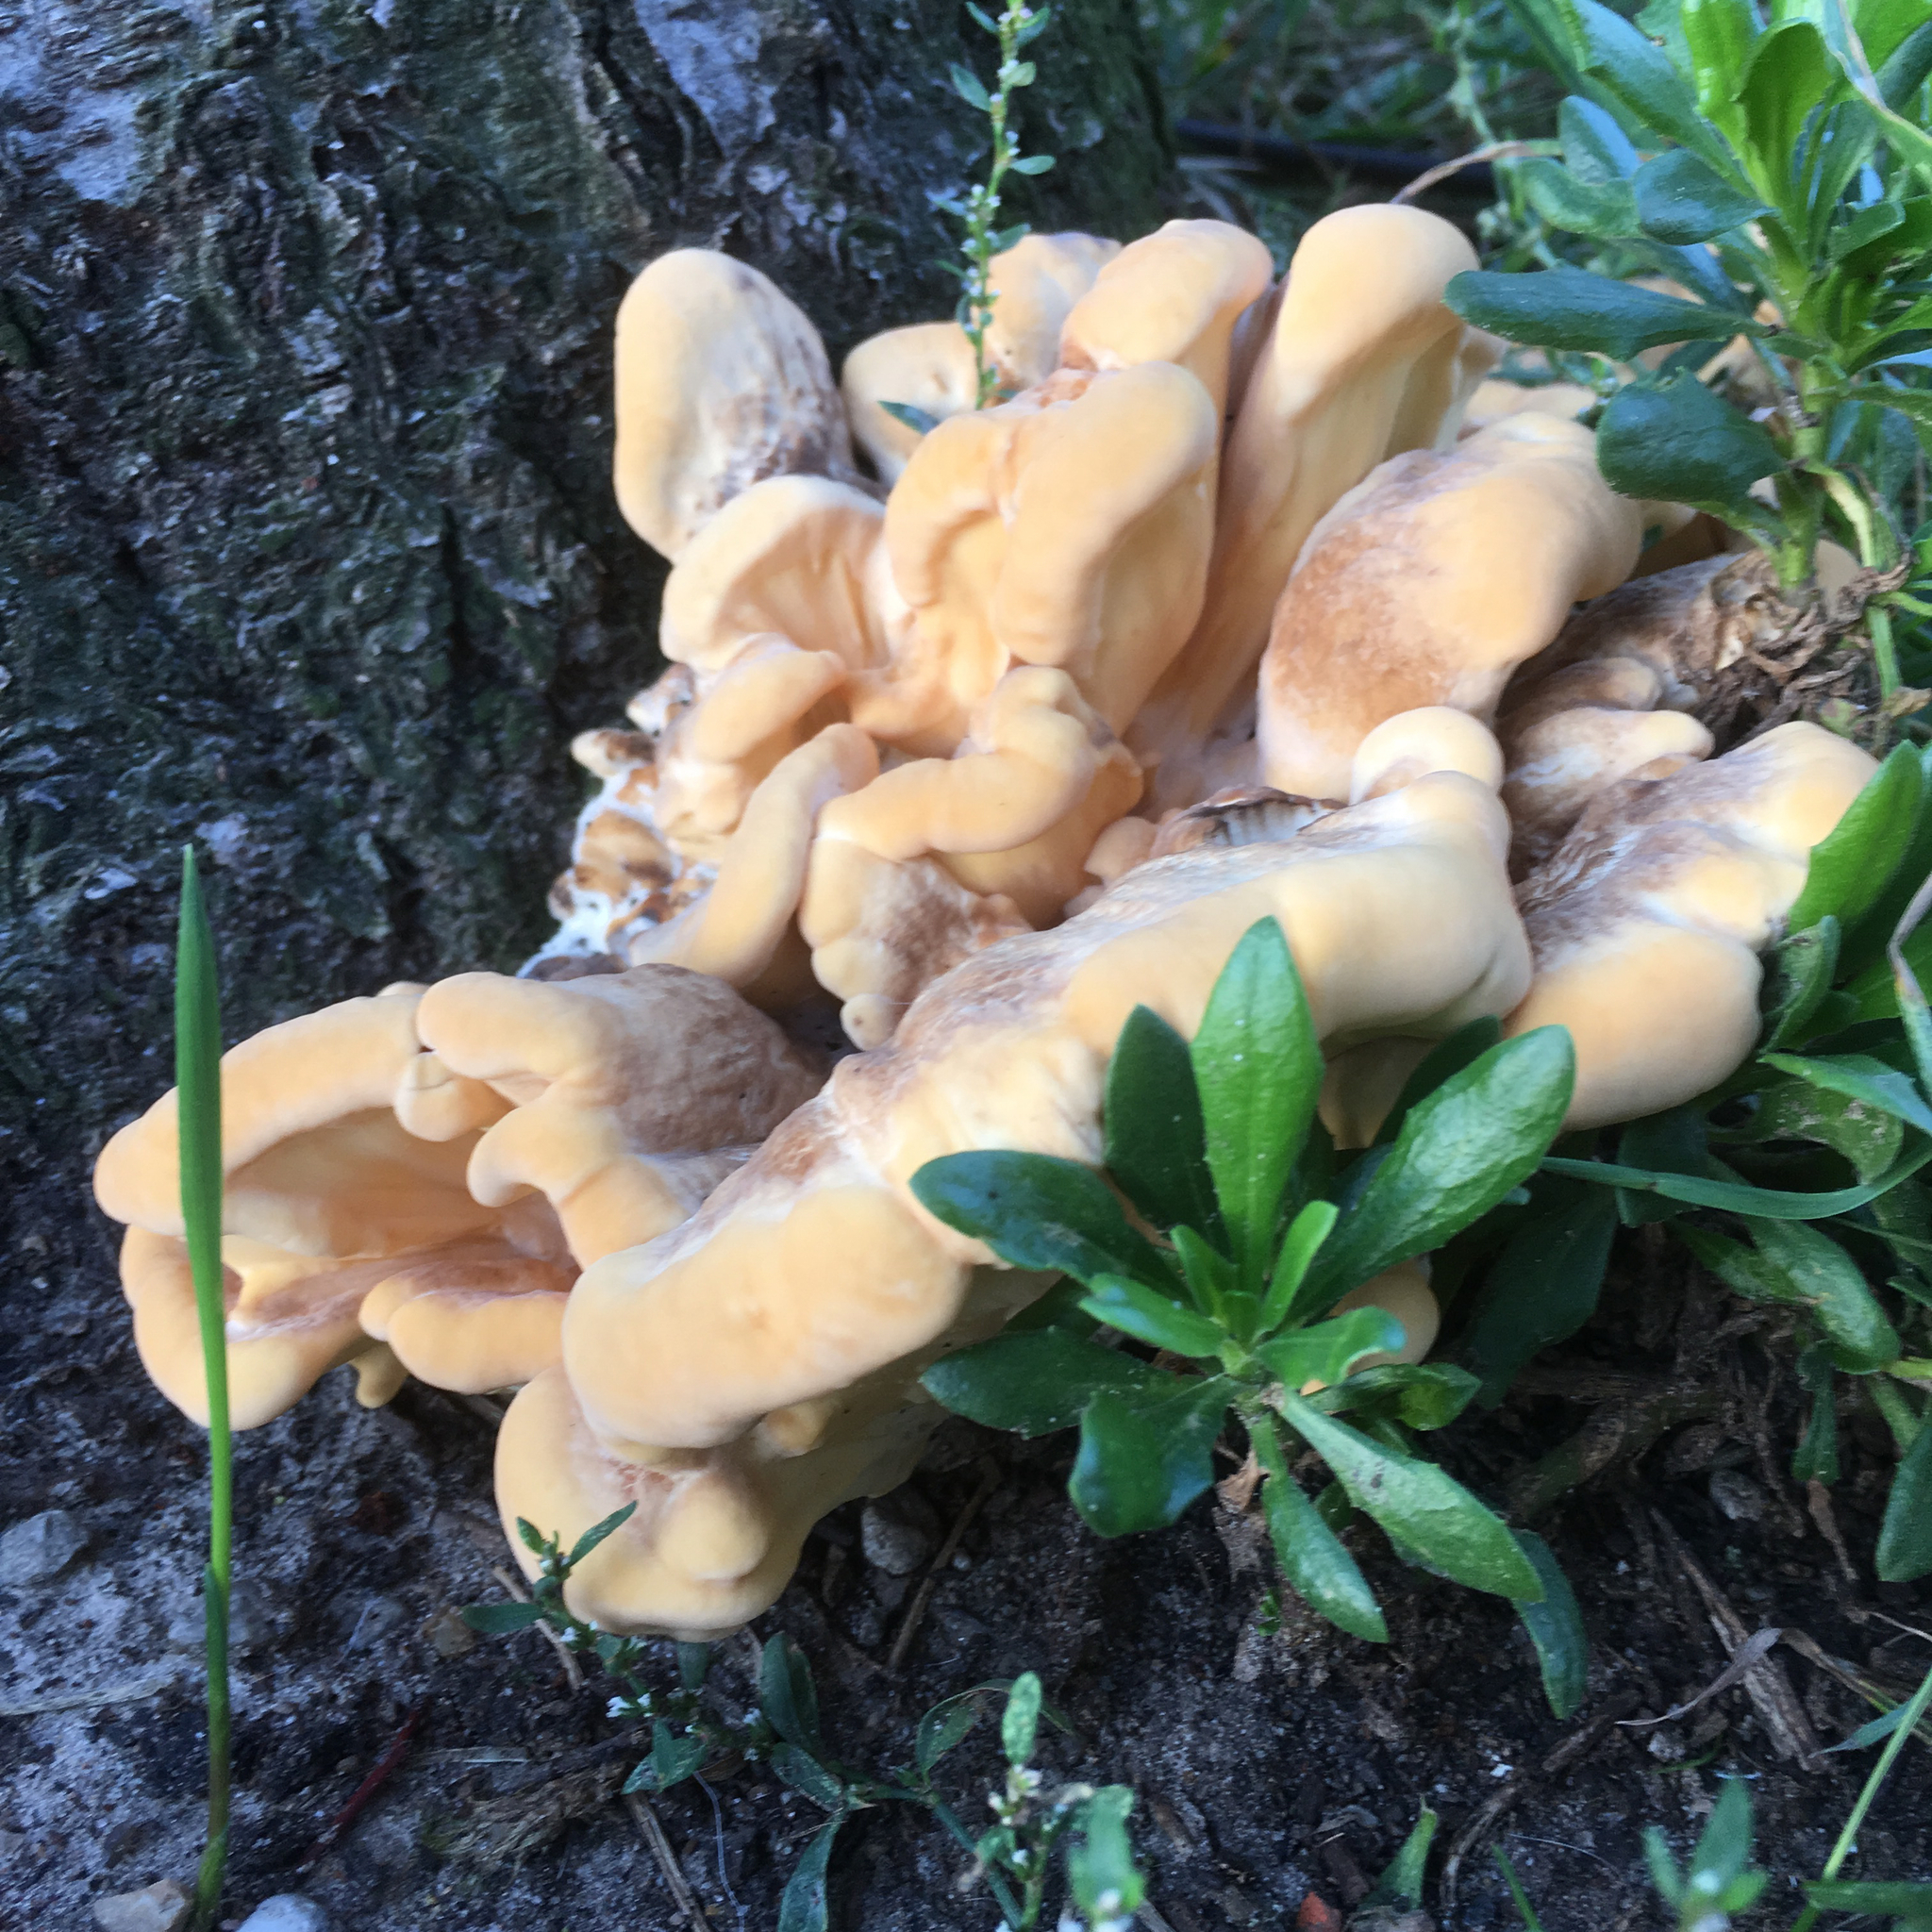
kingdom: Fungi
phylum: Basidiomycota
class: Agaricomycetes
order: Polyporales
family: Laetiporaceae
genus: Laetiporus
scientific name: Laetiporus sulphureus
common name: Chicken of the woods
